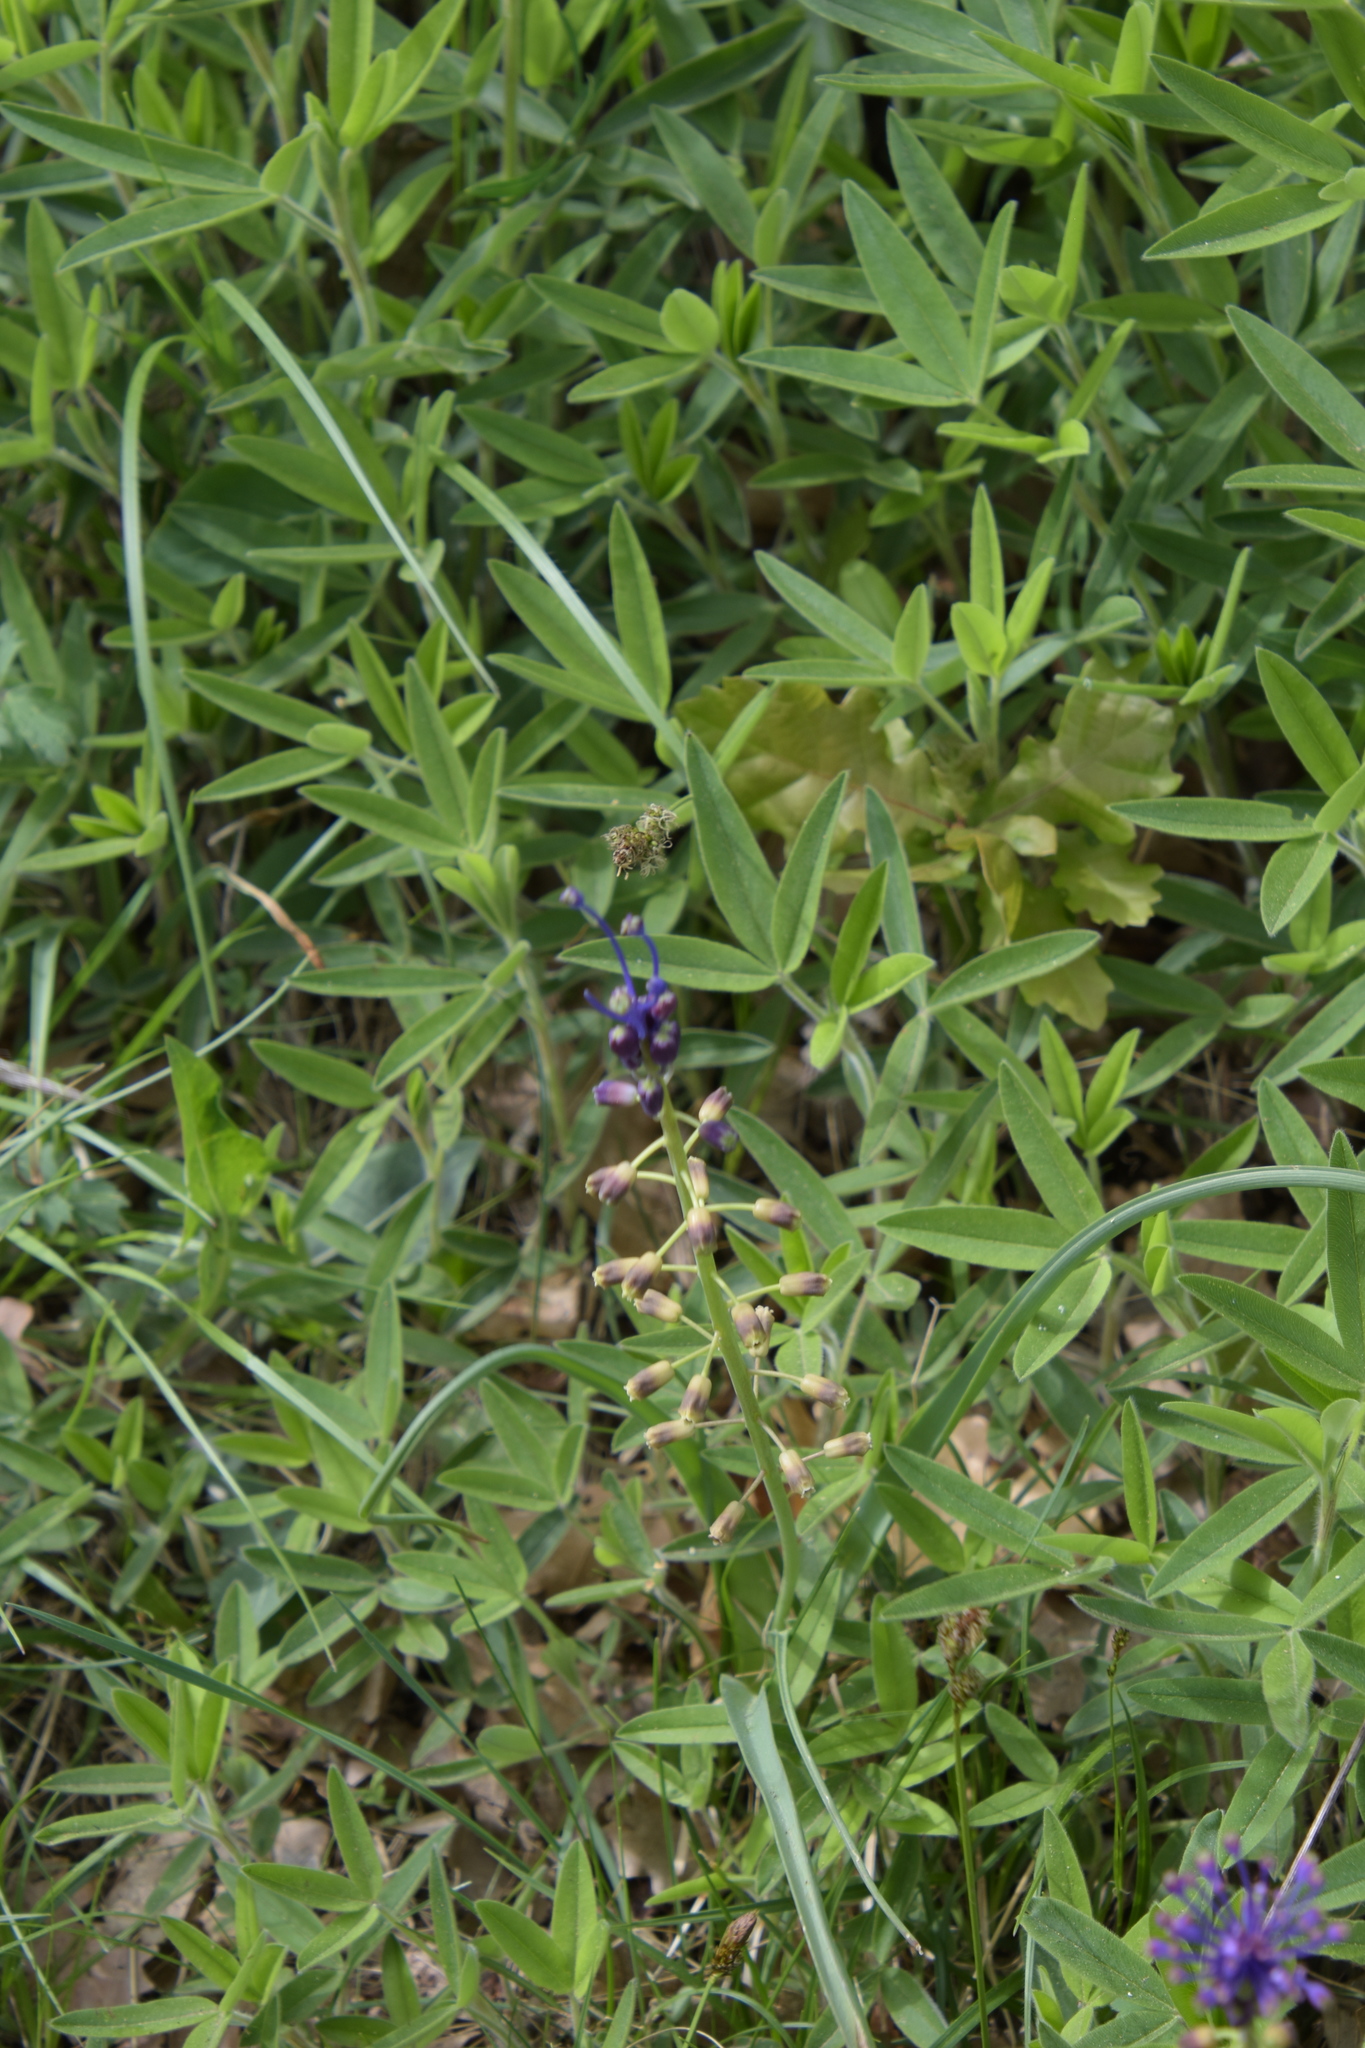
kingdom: Plantae
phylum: Tracheophyta
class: Liliopsida
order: Asparagales
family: Asparagaceae
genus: Muscari
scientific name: Muscari comosum
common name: Tassel hyacinth
